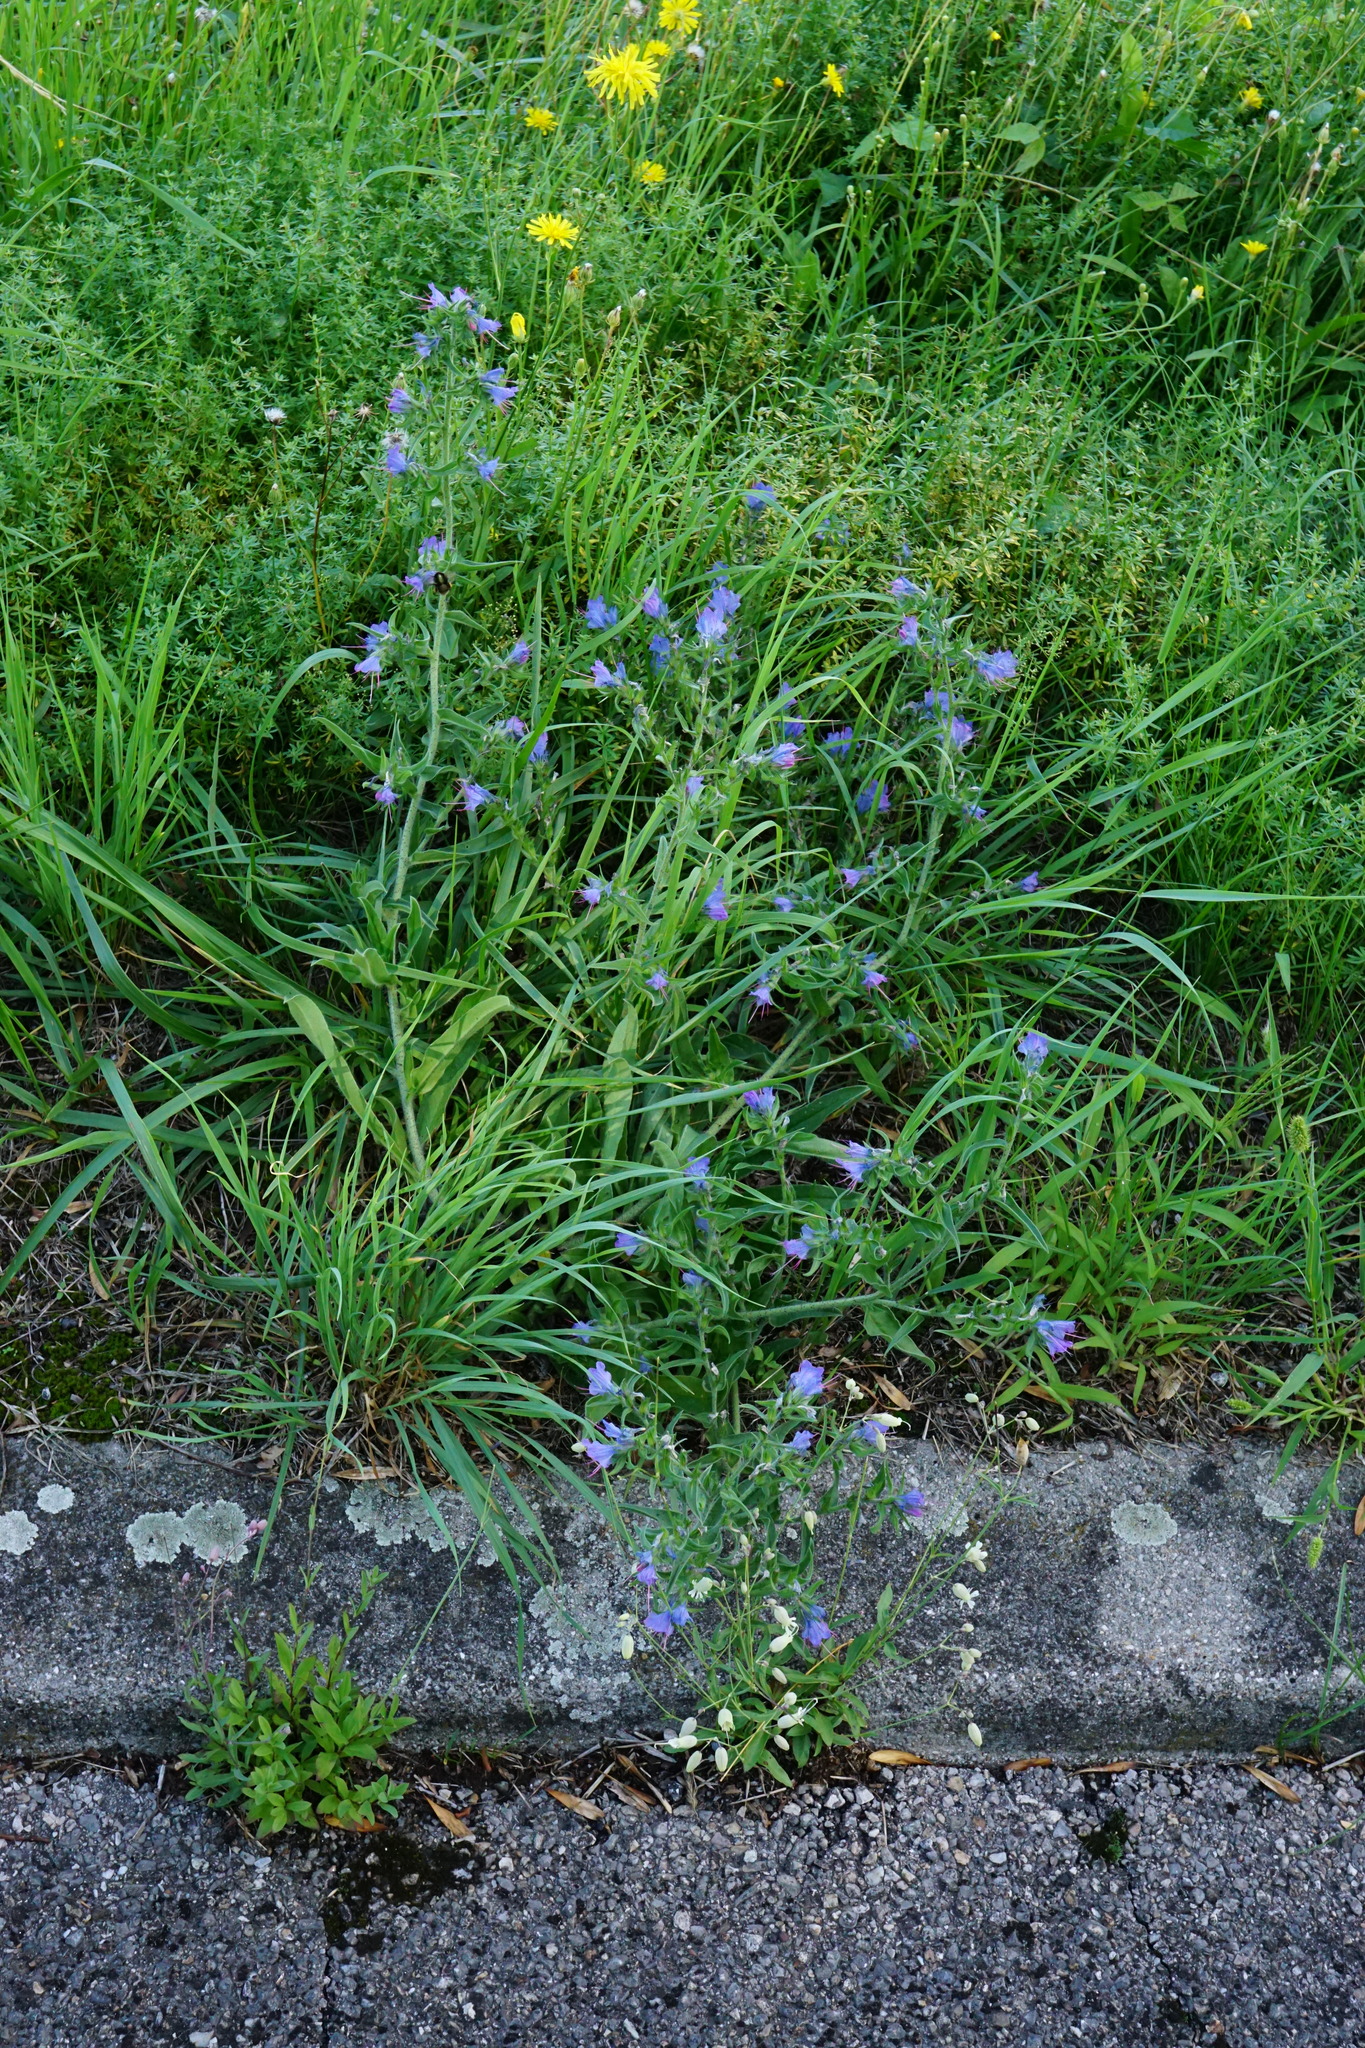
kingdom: Plantae
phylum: Tracheophyta
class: Magnoliopsida
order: Boraginales
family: Boraginaceae
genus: Echium
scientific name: Echium vulgare
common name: Common viper's bugloss
